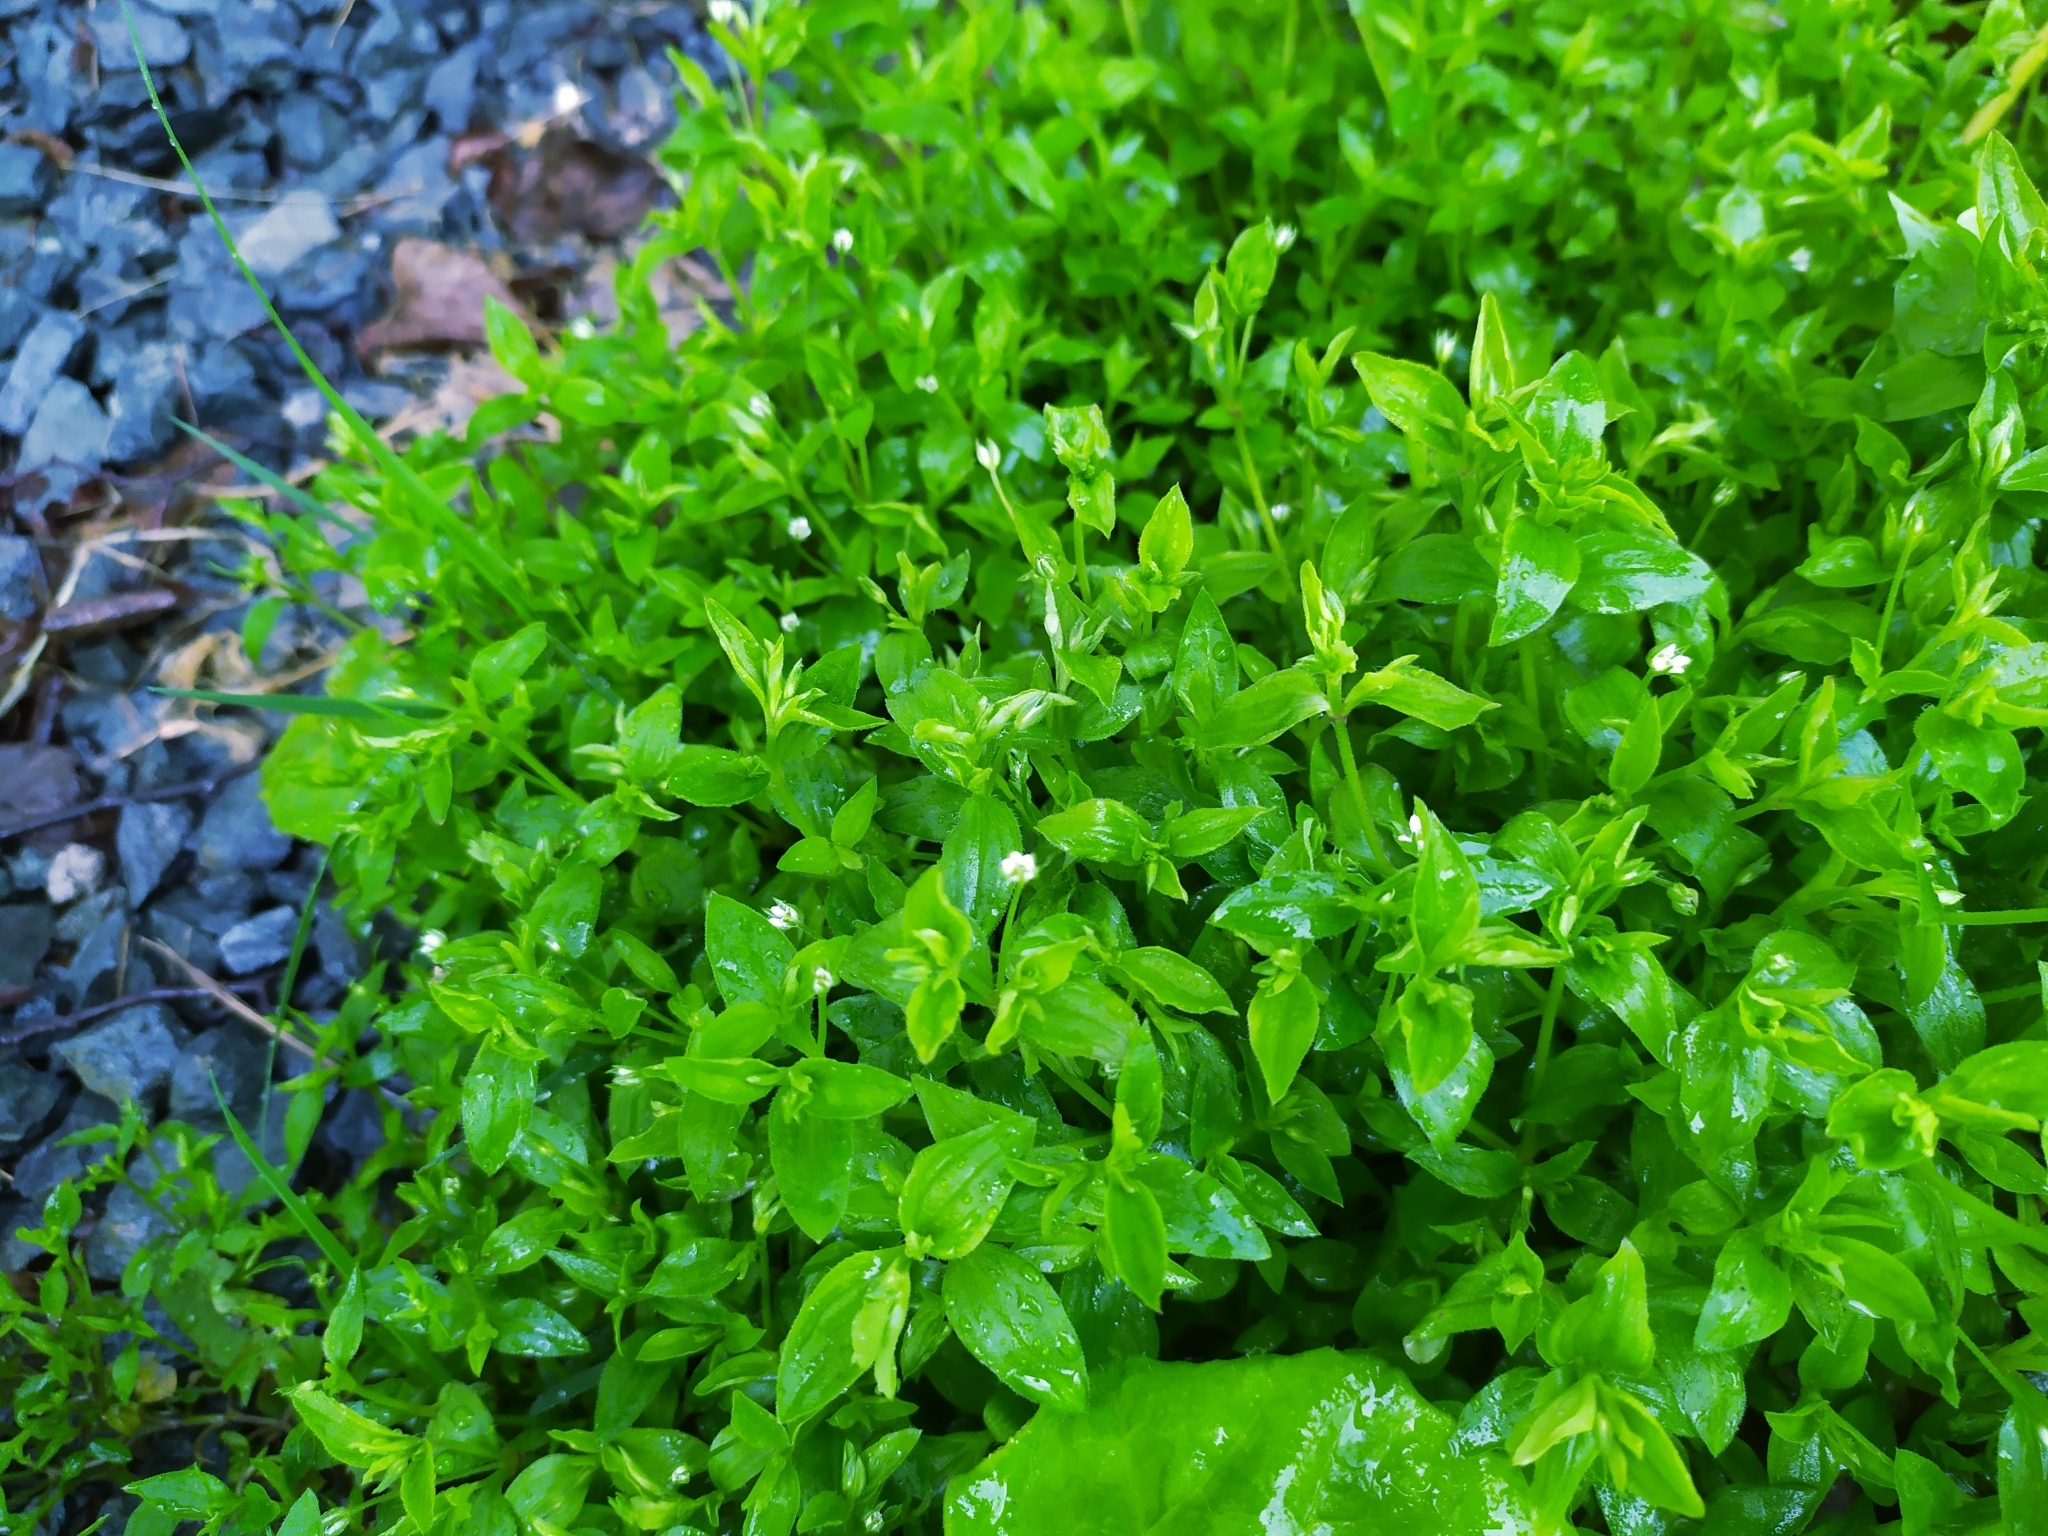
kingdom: Plantae
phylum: Tracheophyta
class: Magnoliopsida
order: Caryophyllales
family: Caryophyllaceae
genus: Moehringia
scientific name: Moehringia trinervia
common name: Three-nerved sandwort
